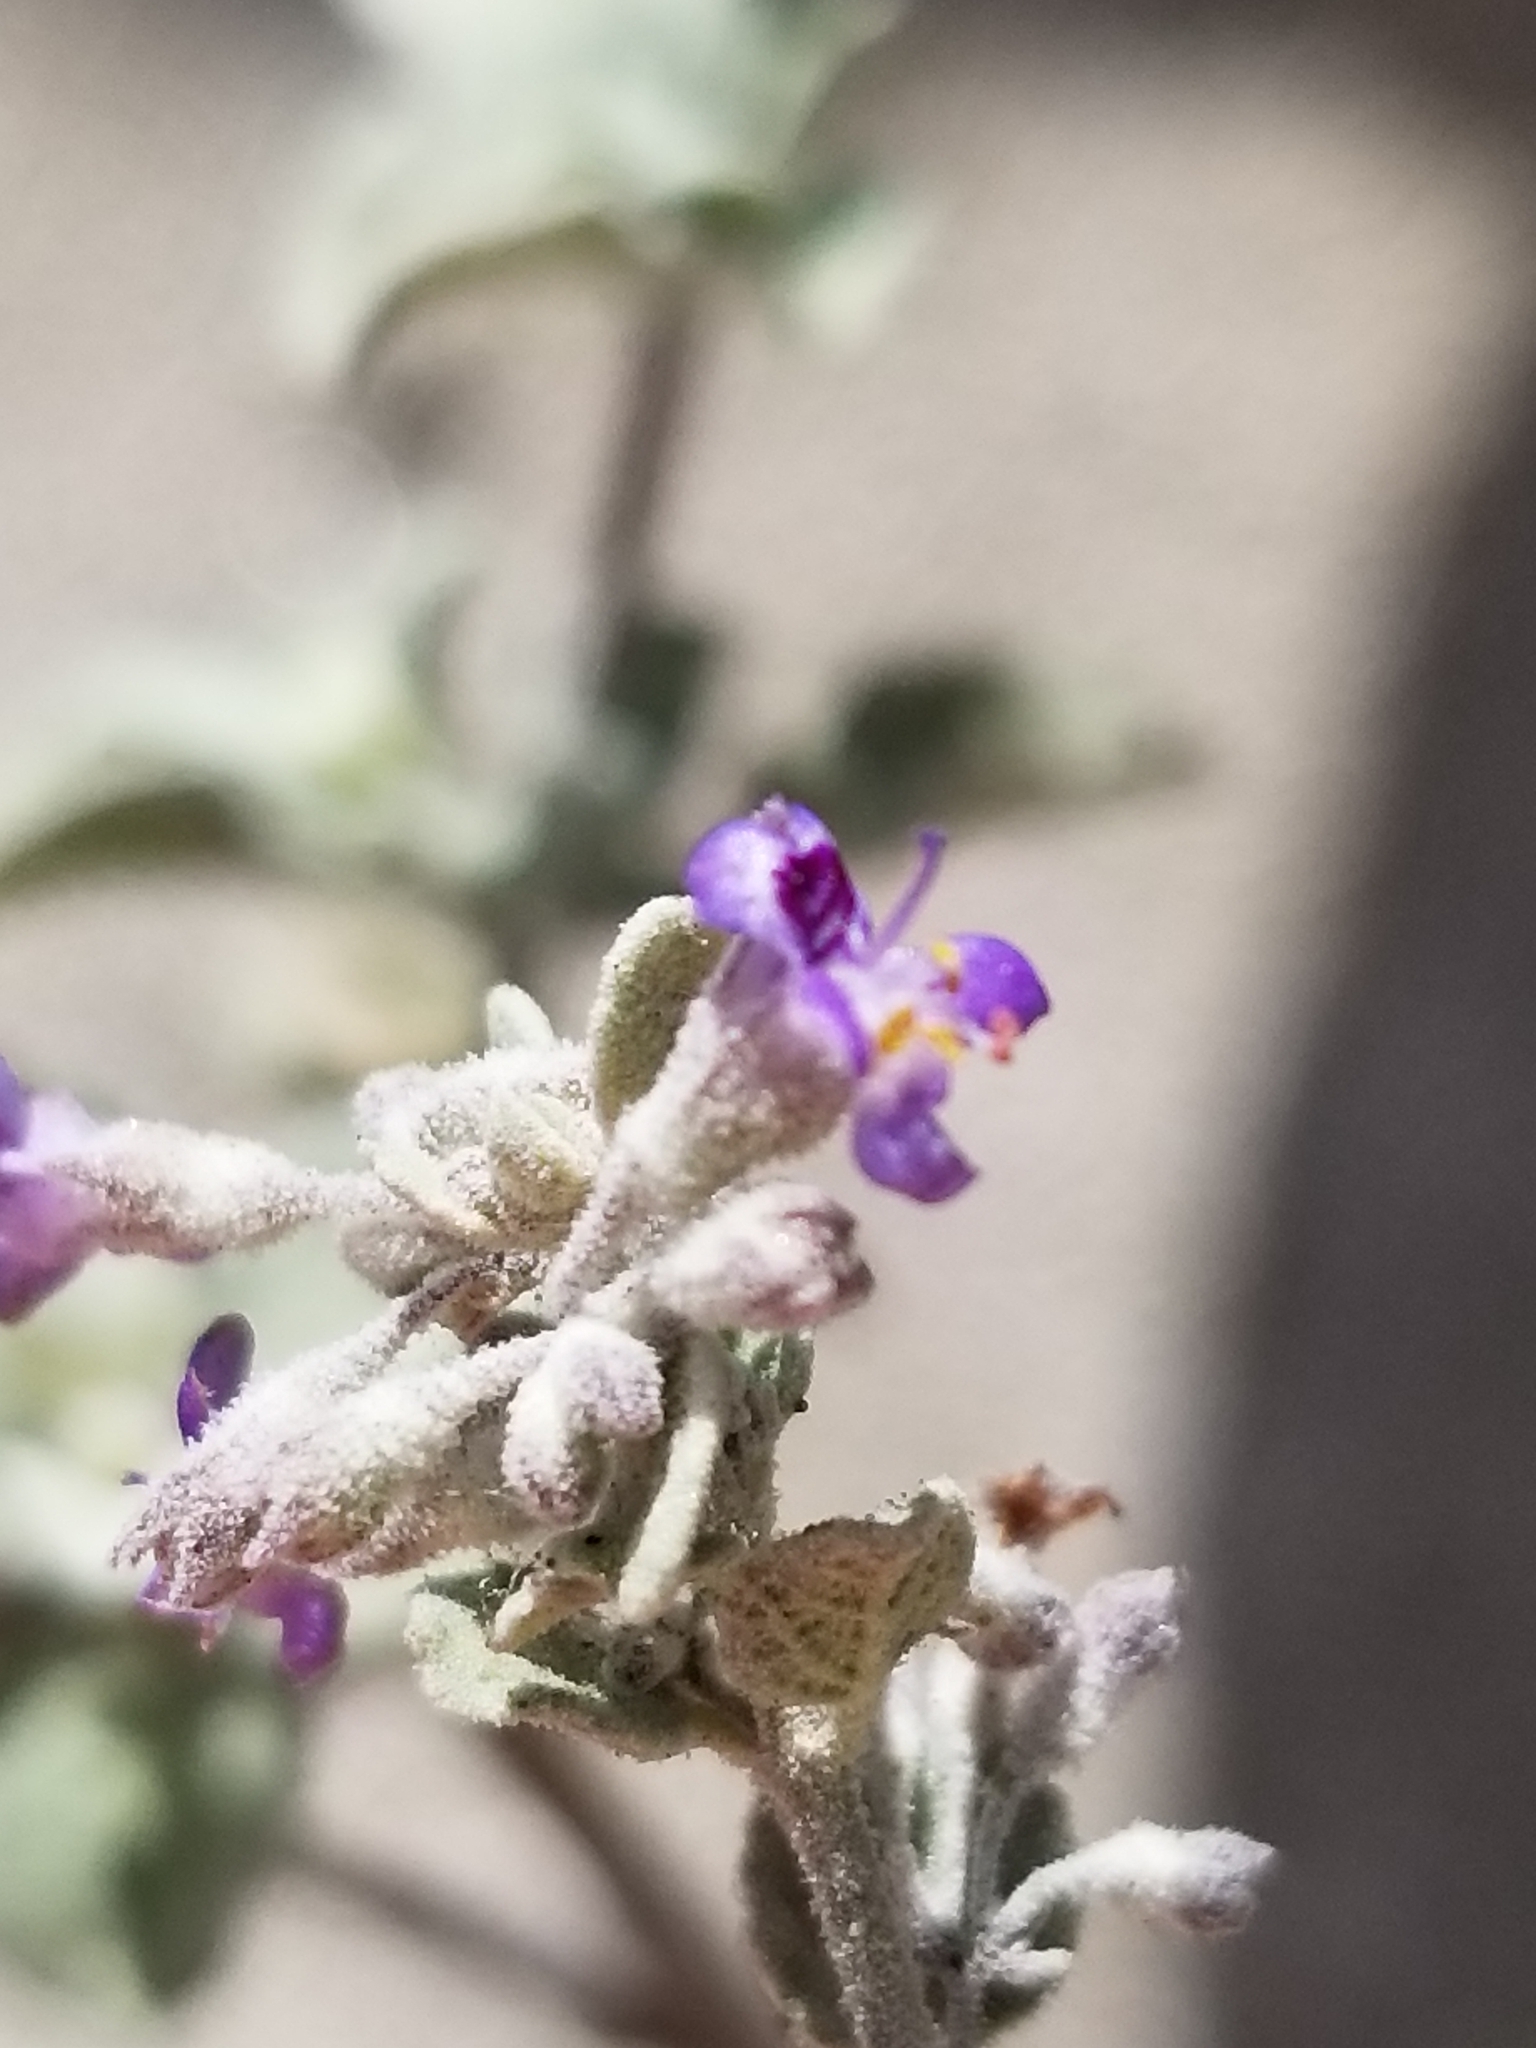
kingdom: Plantae
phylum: Tracheophyta
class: Magnoliopsida
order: Lamiales
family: Lamiaceae
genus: Condea
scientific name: Condea emoryi
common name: Chia
